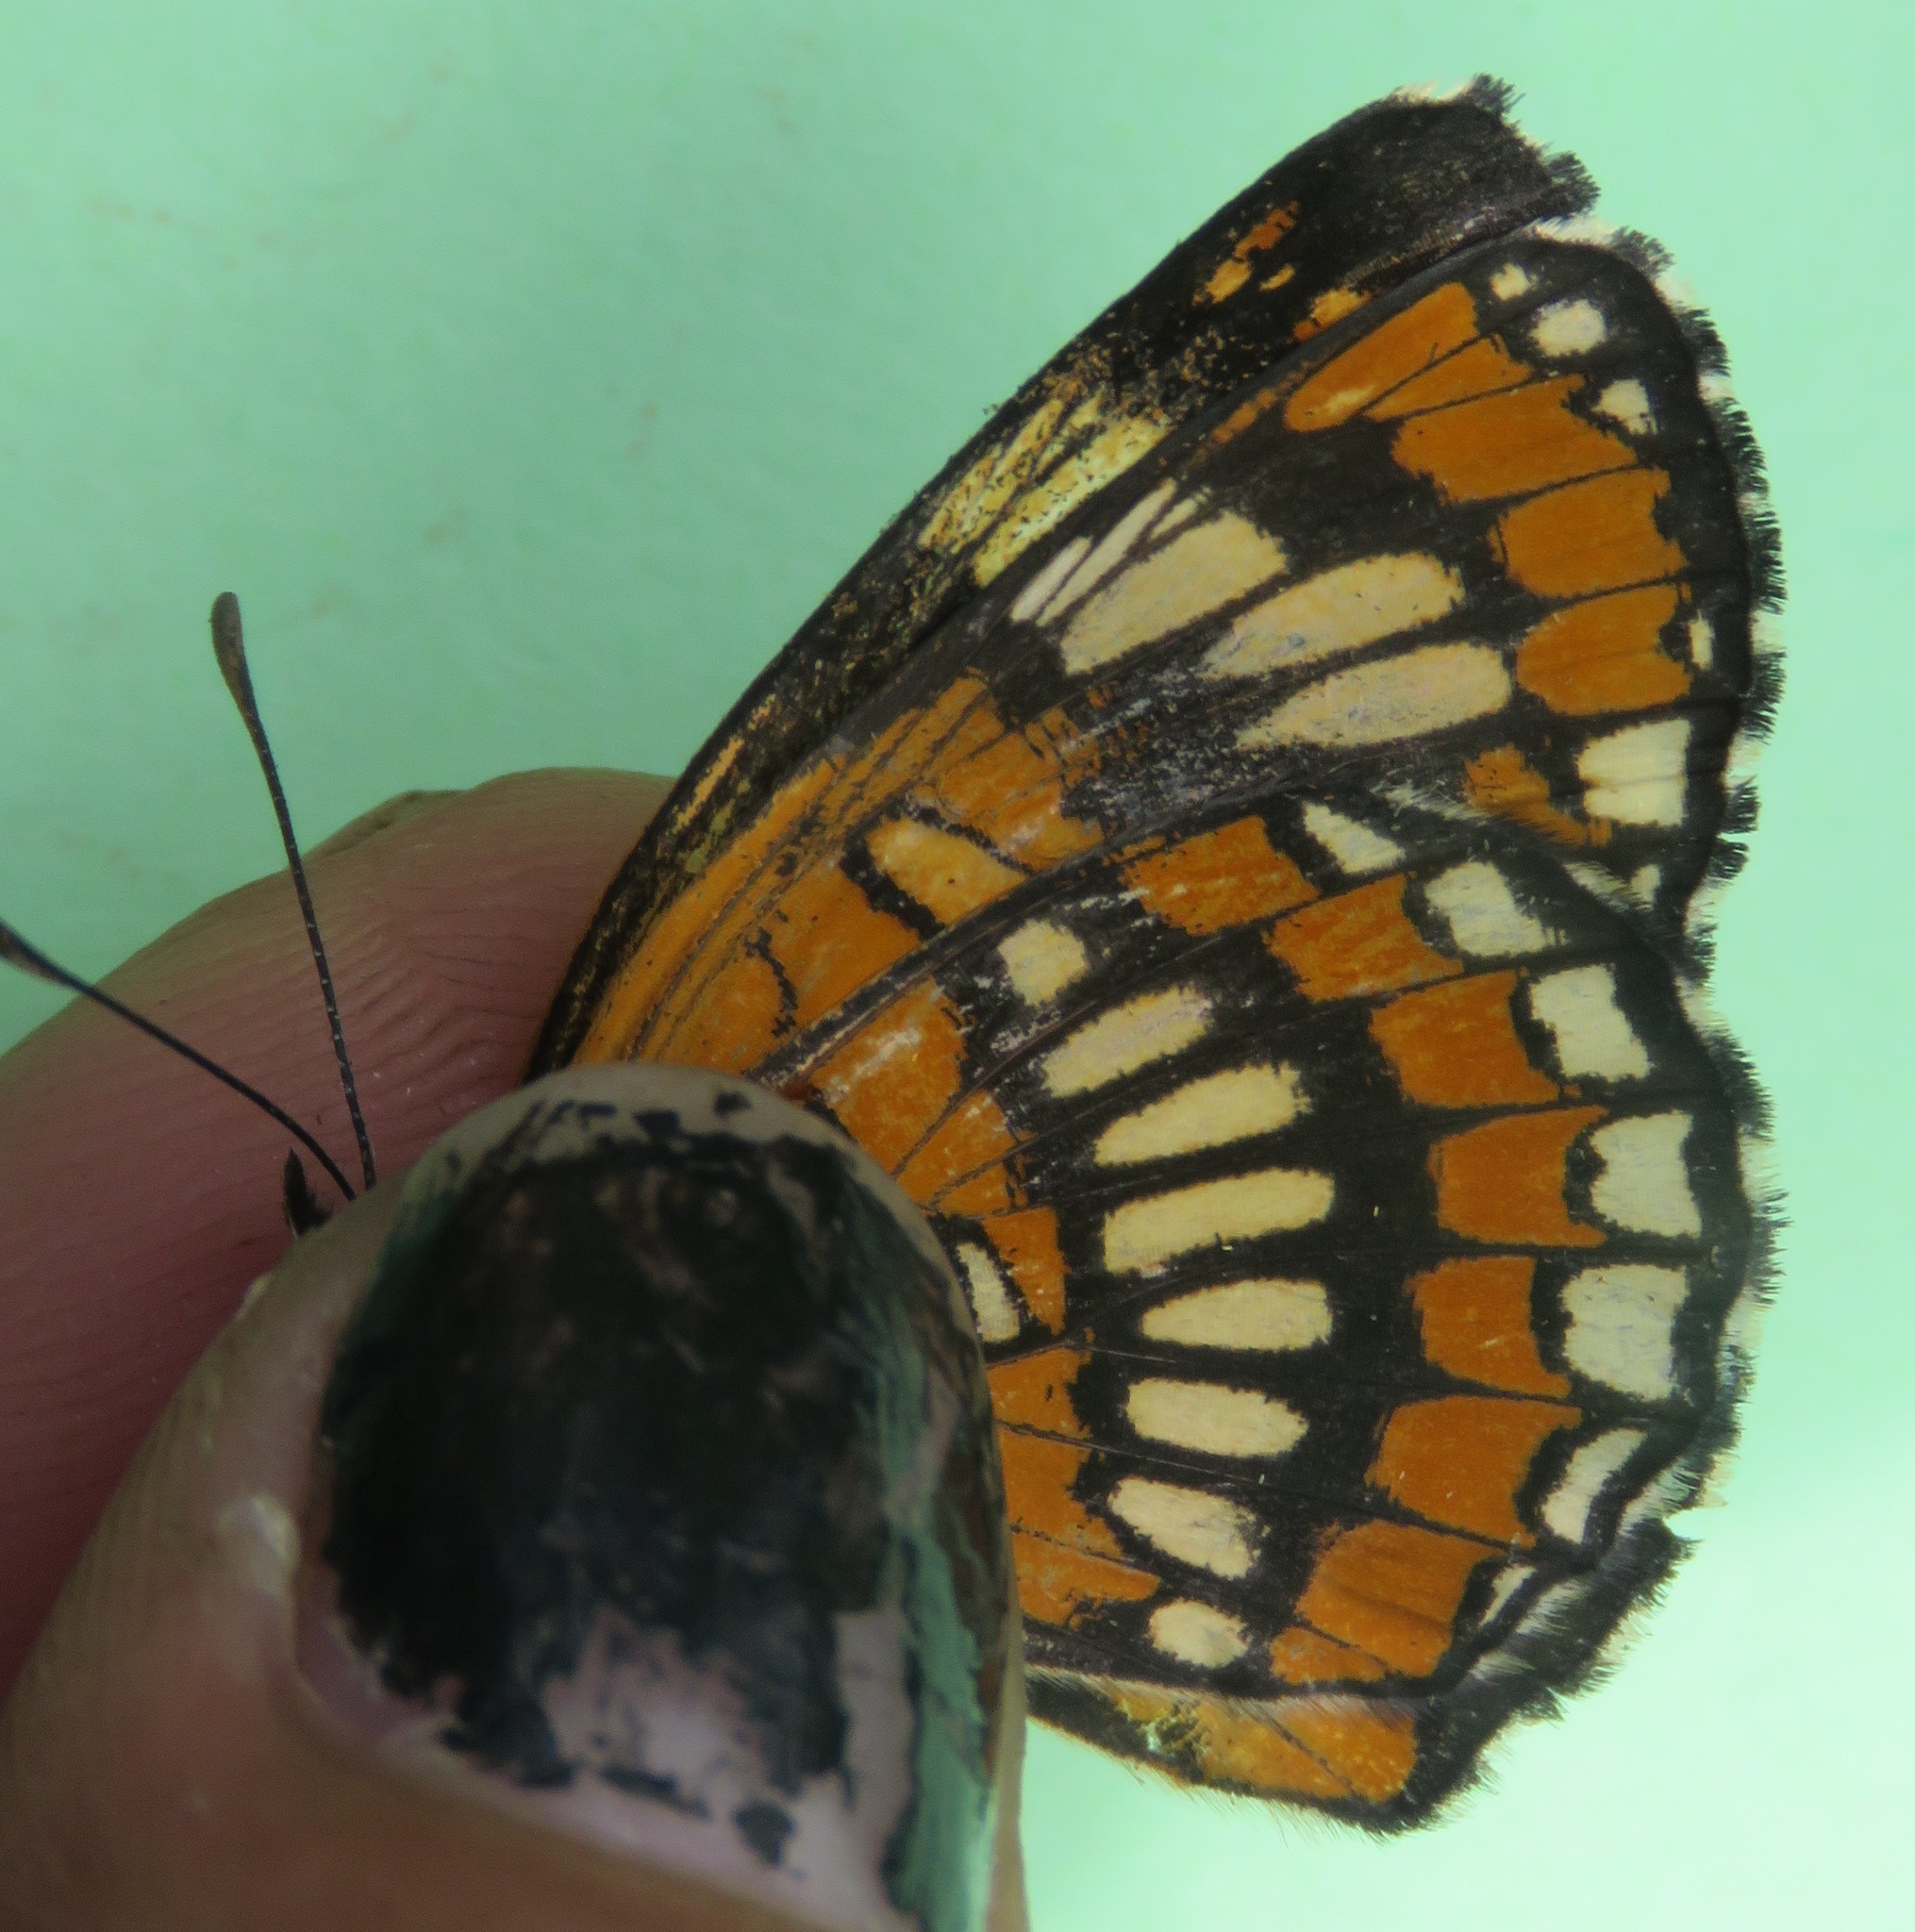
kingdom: Animalia
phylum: Arthropoda
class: Insecta
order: Lepidoptera
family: Nymphalidae
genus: Thessalia
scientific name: Thessalia theona
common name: Nymphalid moth
